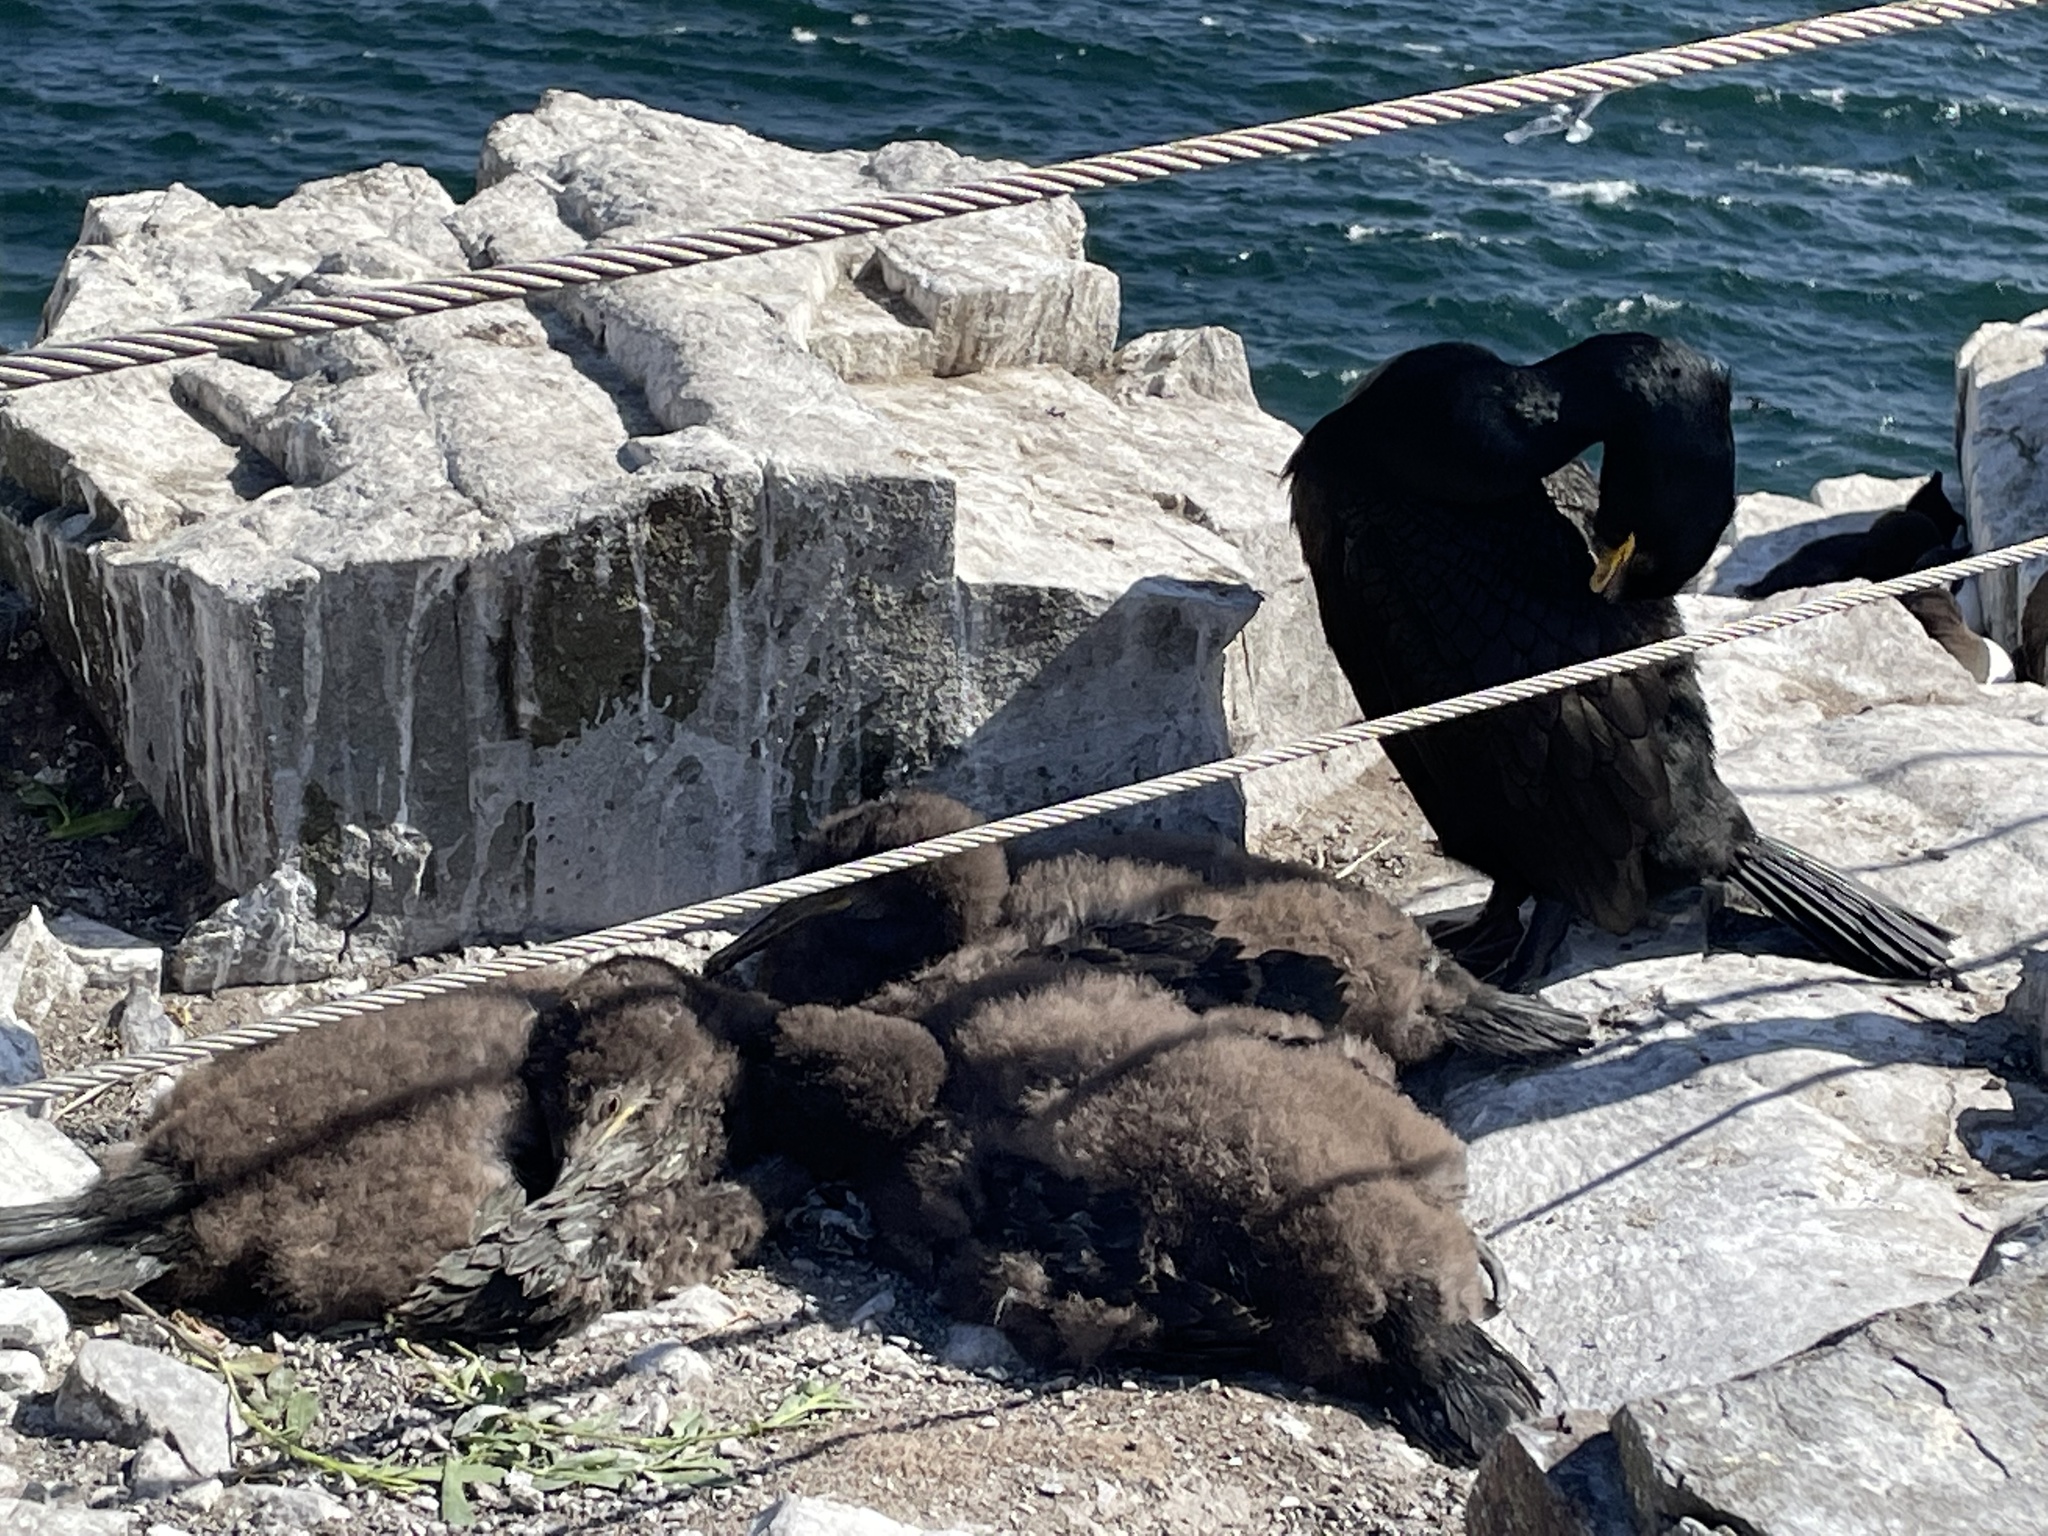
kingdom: Animalia
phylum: Chordata
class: Aves
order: Suliformes
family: Phalacrocoracidae
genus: Phalacrocorax
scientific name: Phalacrocorax aristotelis
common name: European shag
